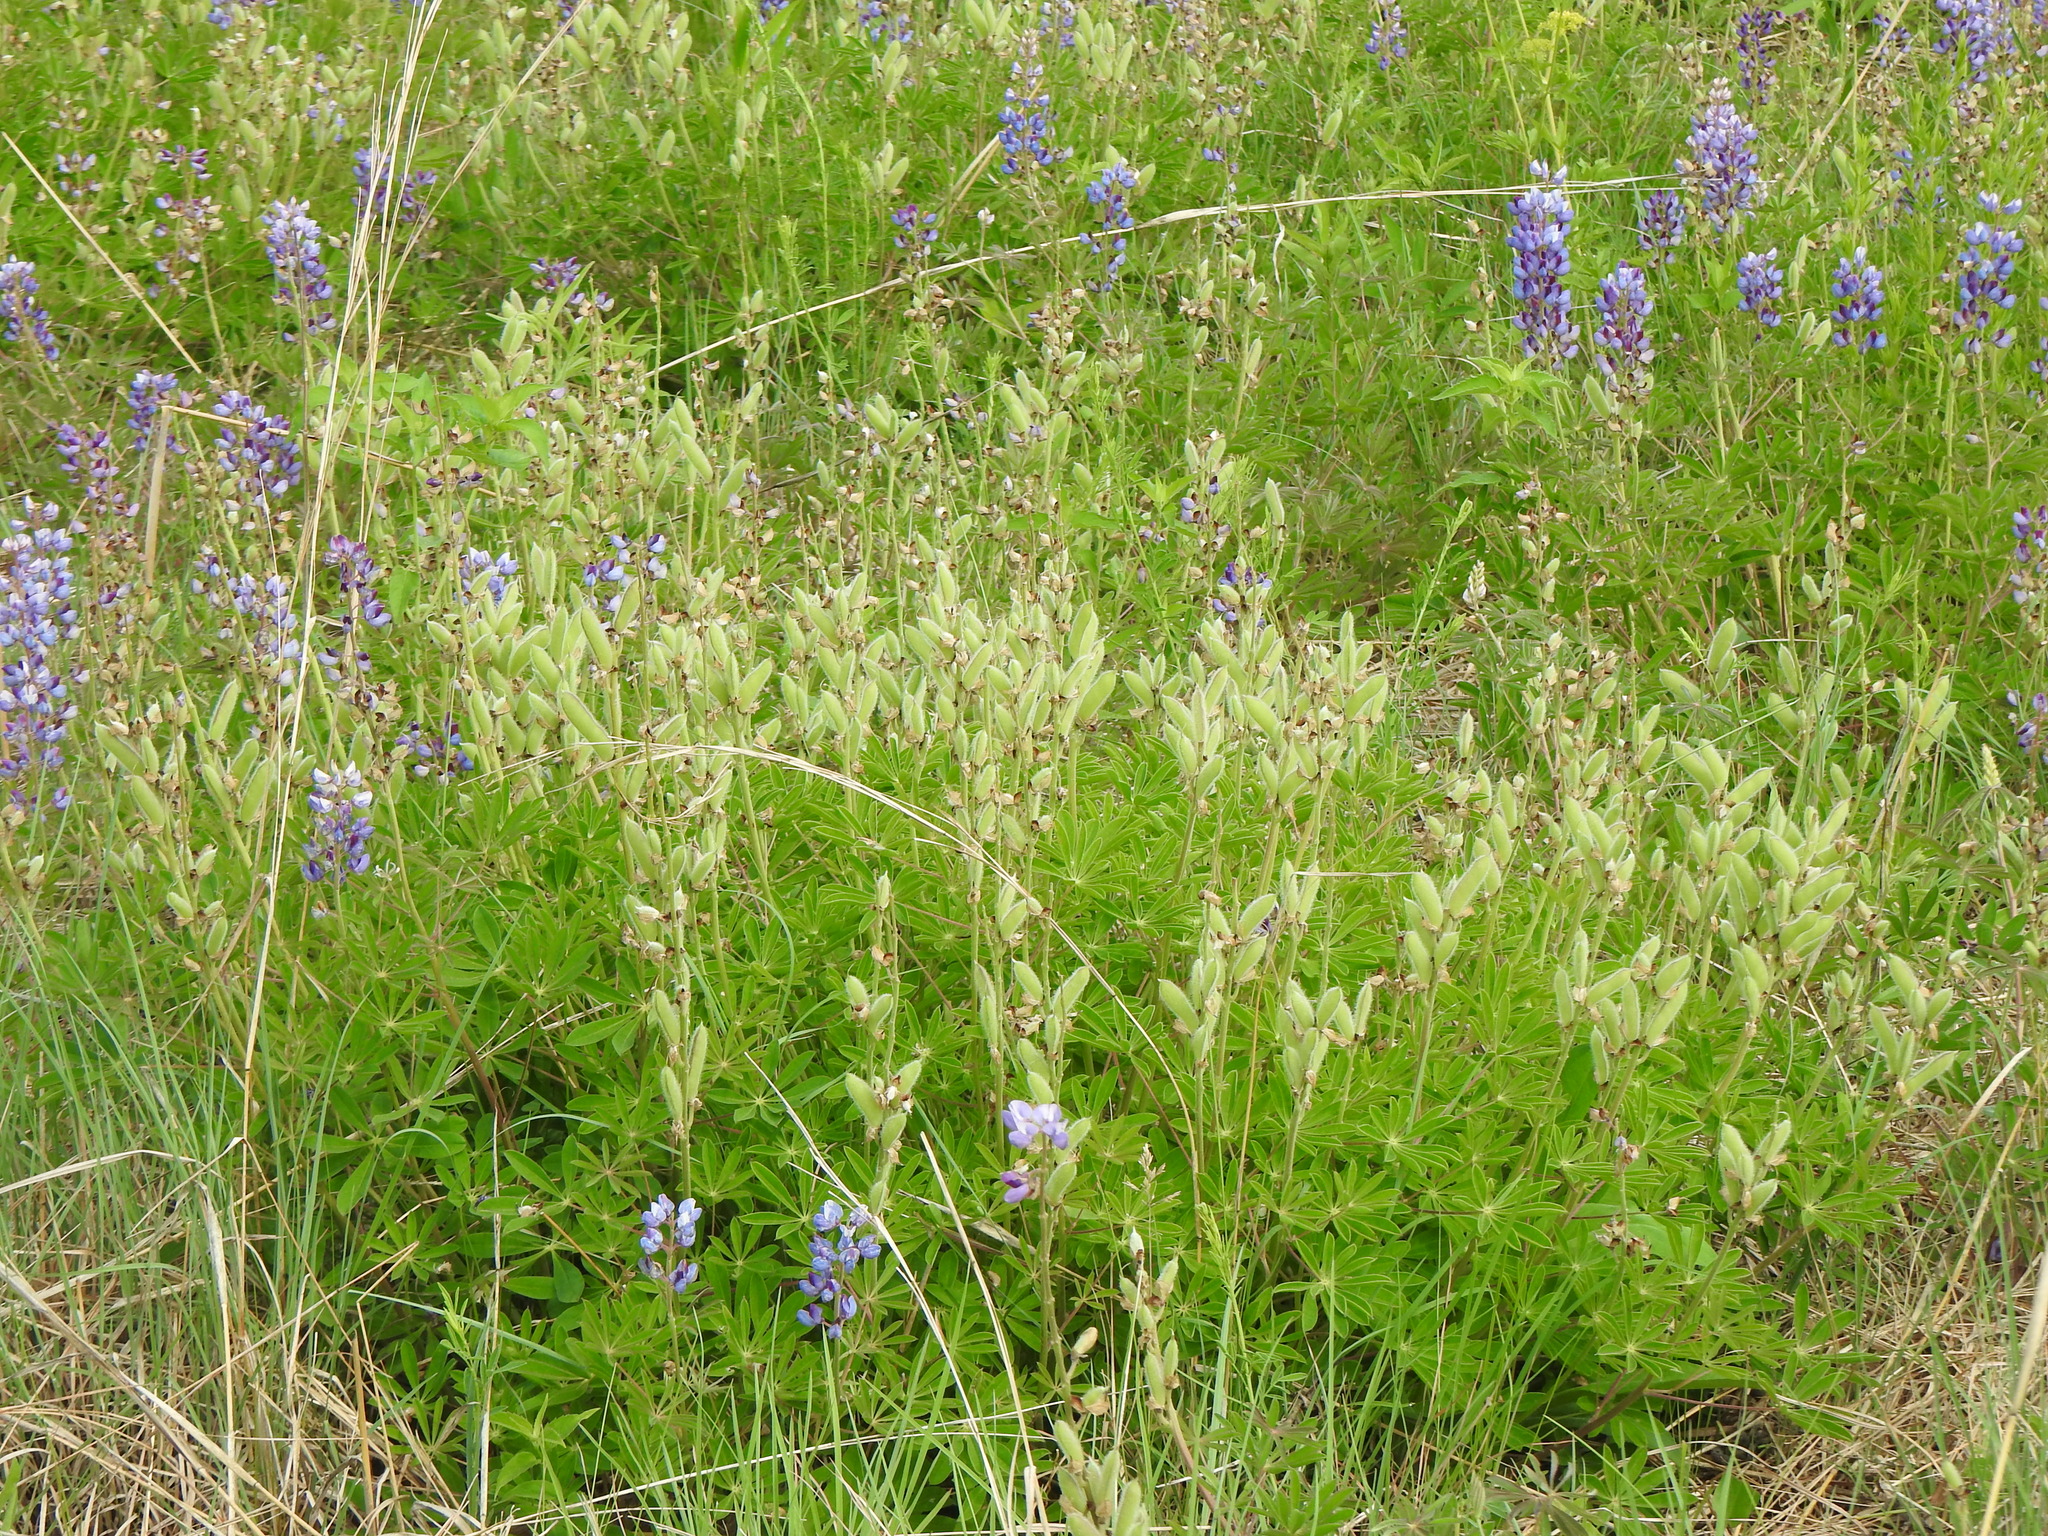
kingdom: Plantae
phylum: Tracheophyta
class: Magnoliopsida
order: Fabales
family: Fabaceae
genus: Lupinus
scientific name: Lupinus perennis
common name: Sundial lupine
